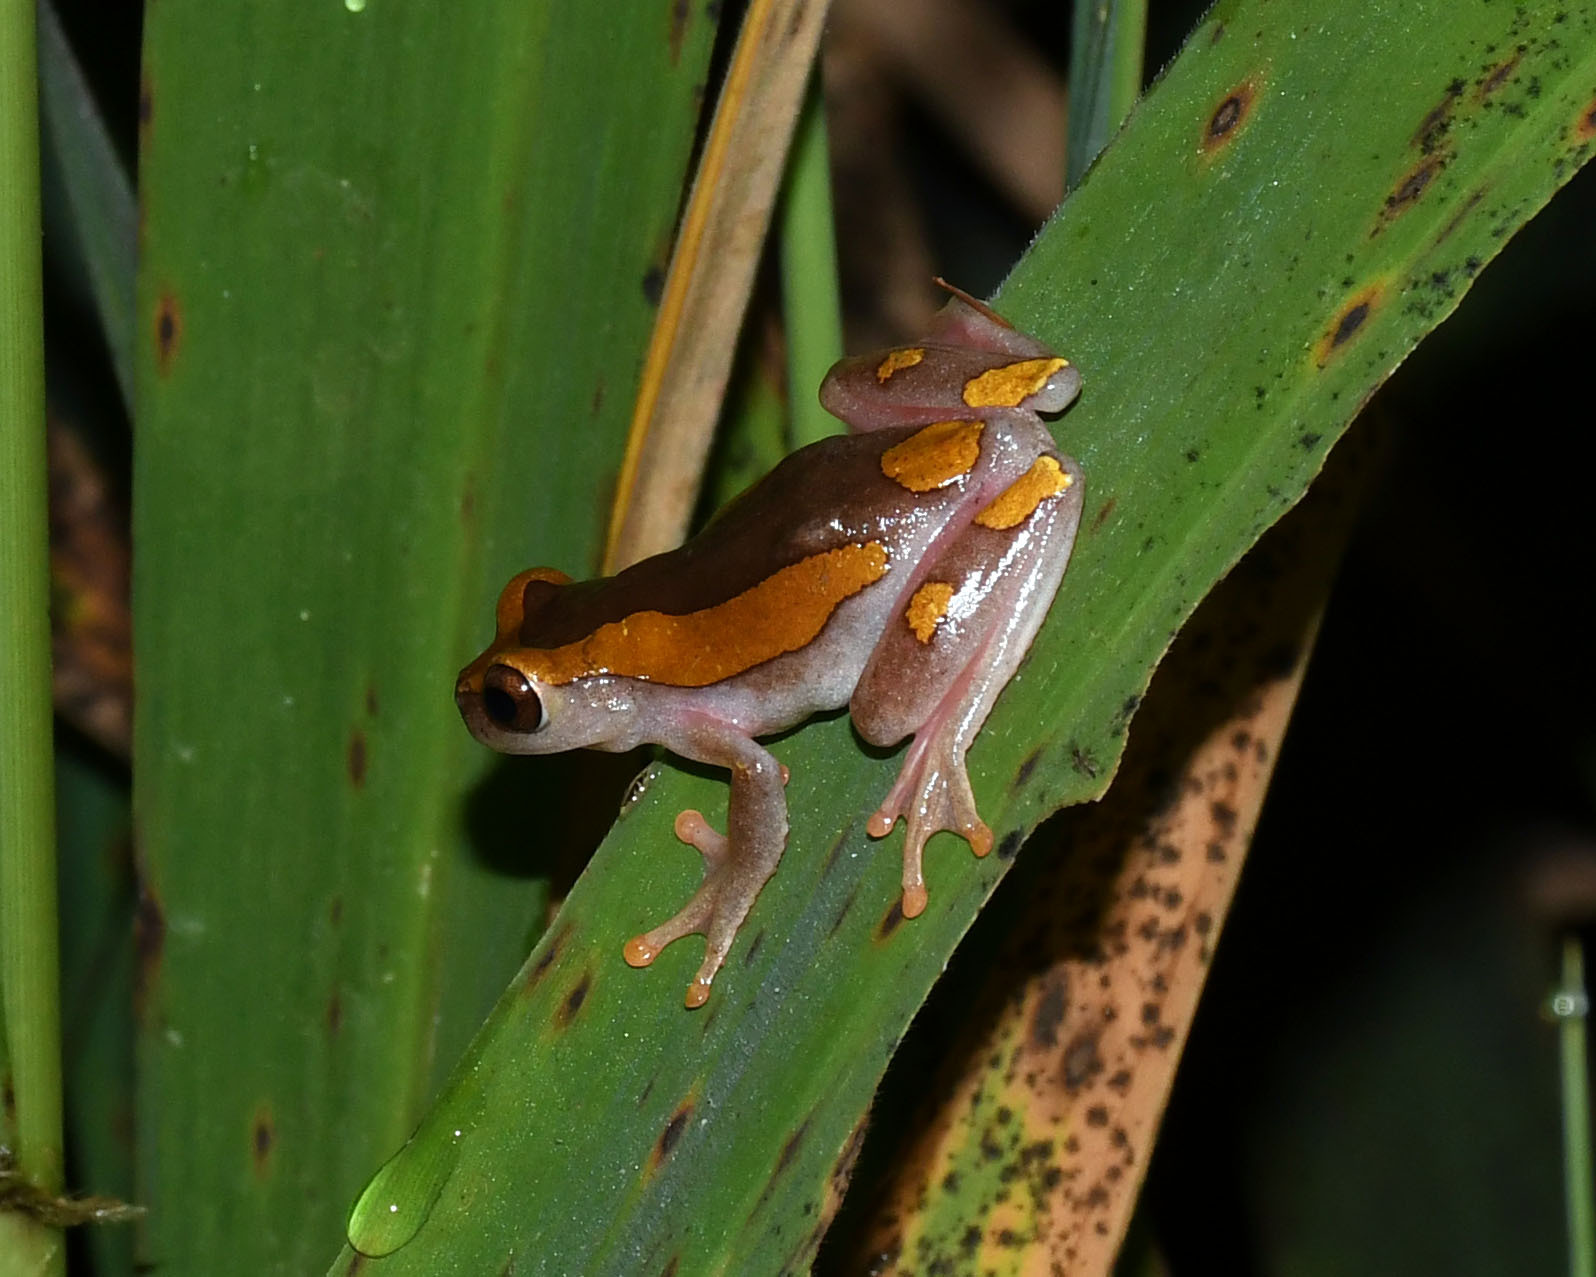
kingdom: Animalia
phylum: Chordata
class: Amphibia
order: Anura
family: Hylidae
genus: Dendropsophus
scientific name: Dendropsophus arndti
